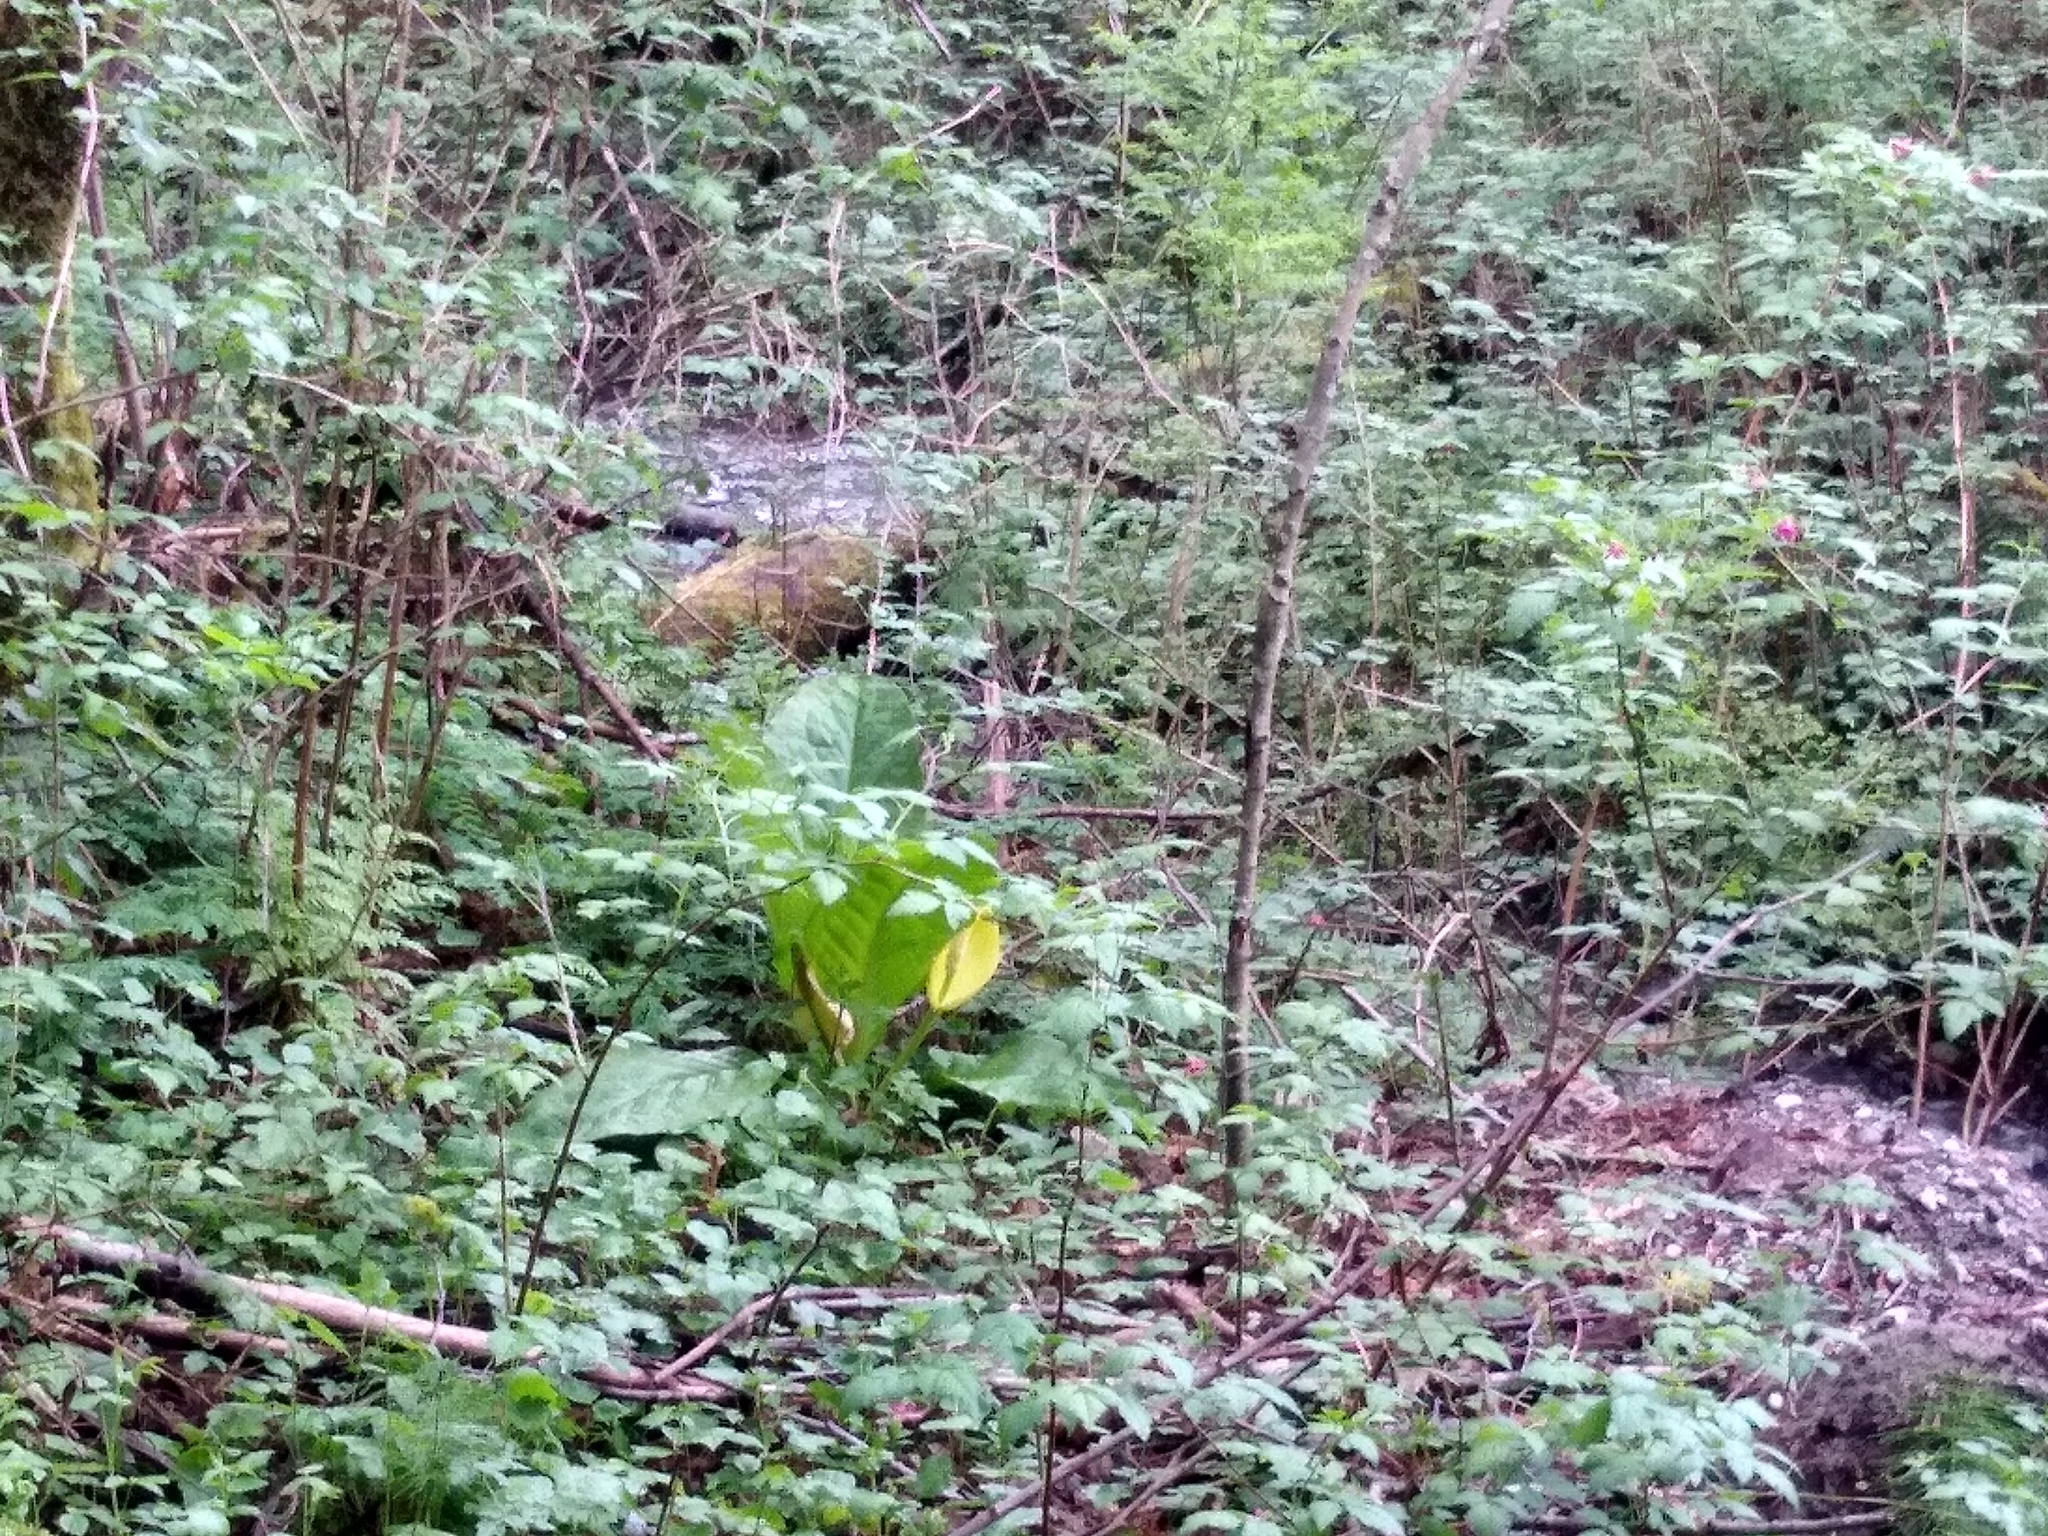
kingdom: Plantae
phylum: Tracheophyta
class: Liliopsida
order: Alismatales
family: Araceae
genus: Lysichiton
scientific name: Lysichiton americanus
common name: American skunk cabbage
